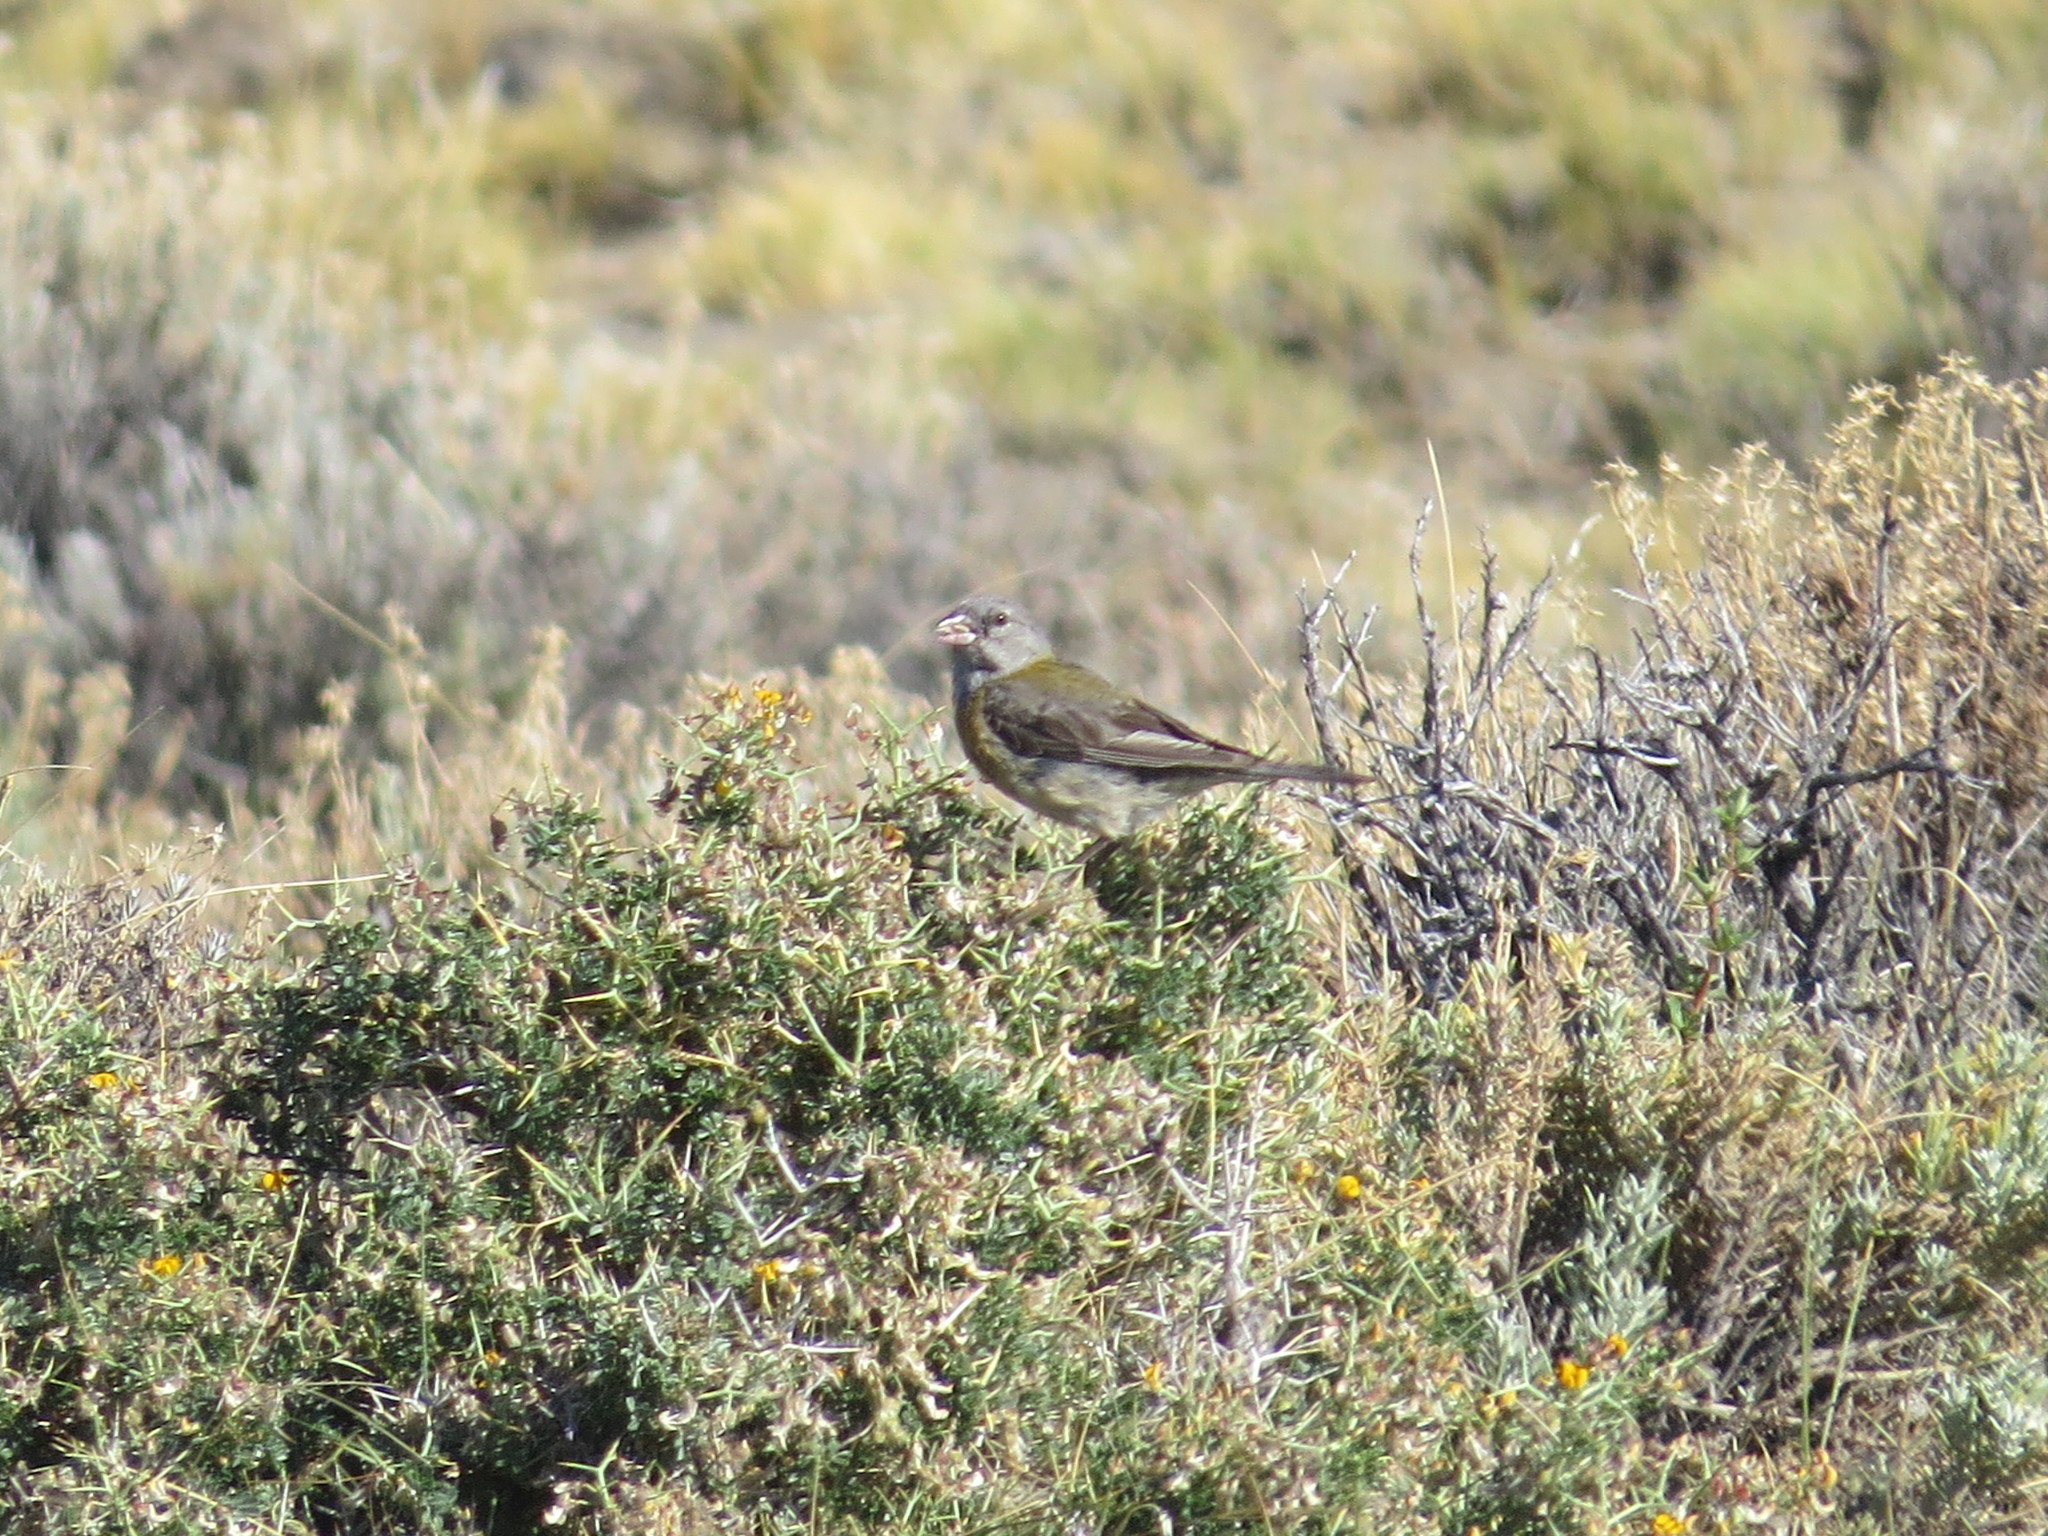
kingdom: Animalia
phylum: Chordata
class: Aves
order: Passeriformes
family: Thraupidae
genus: Phrygilus
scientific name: Phrygilus gayi
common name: Grey-hooded sierra finch
